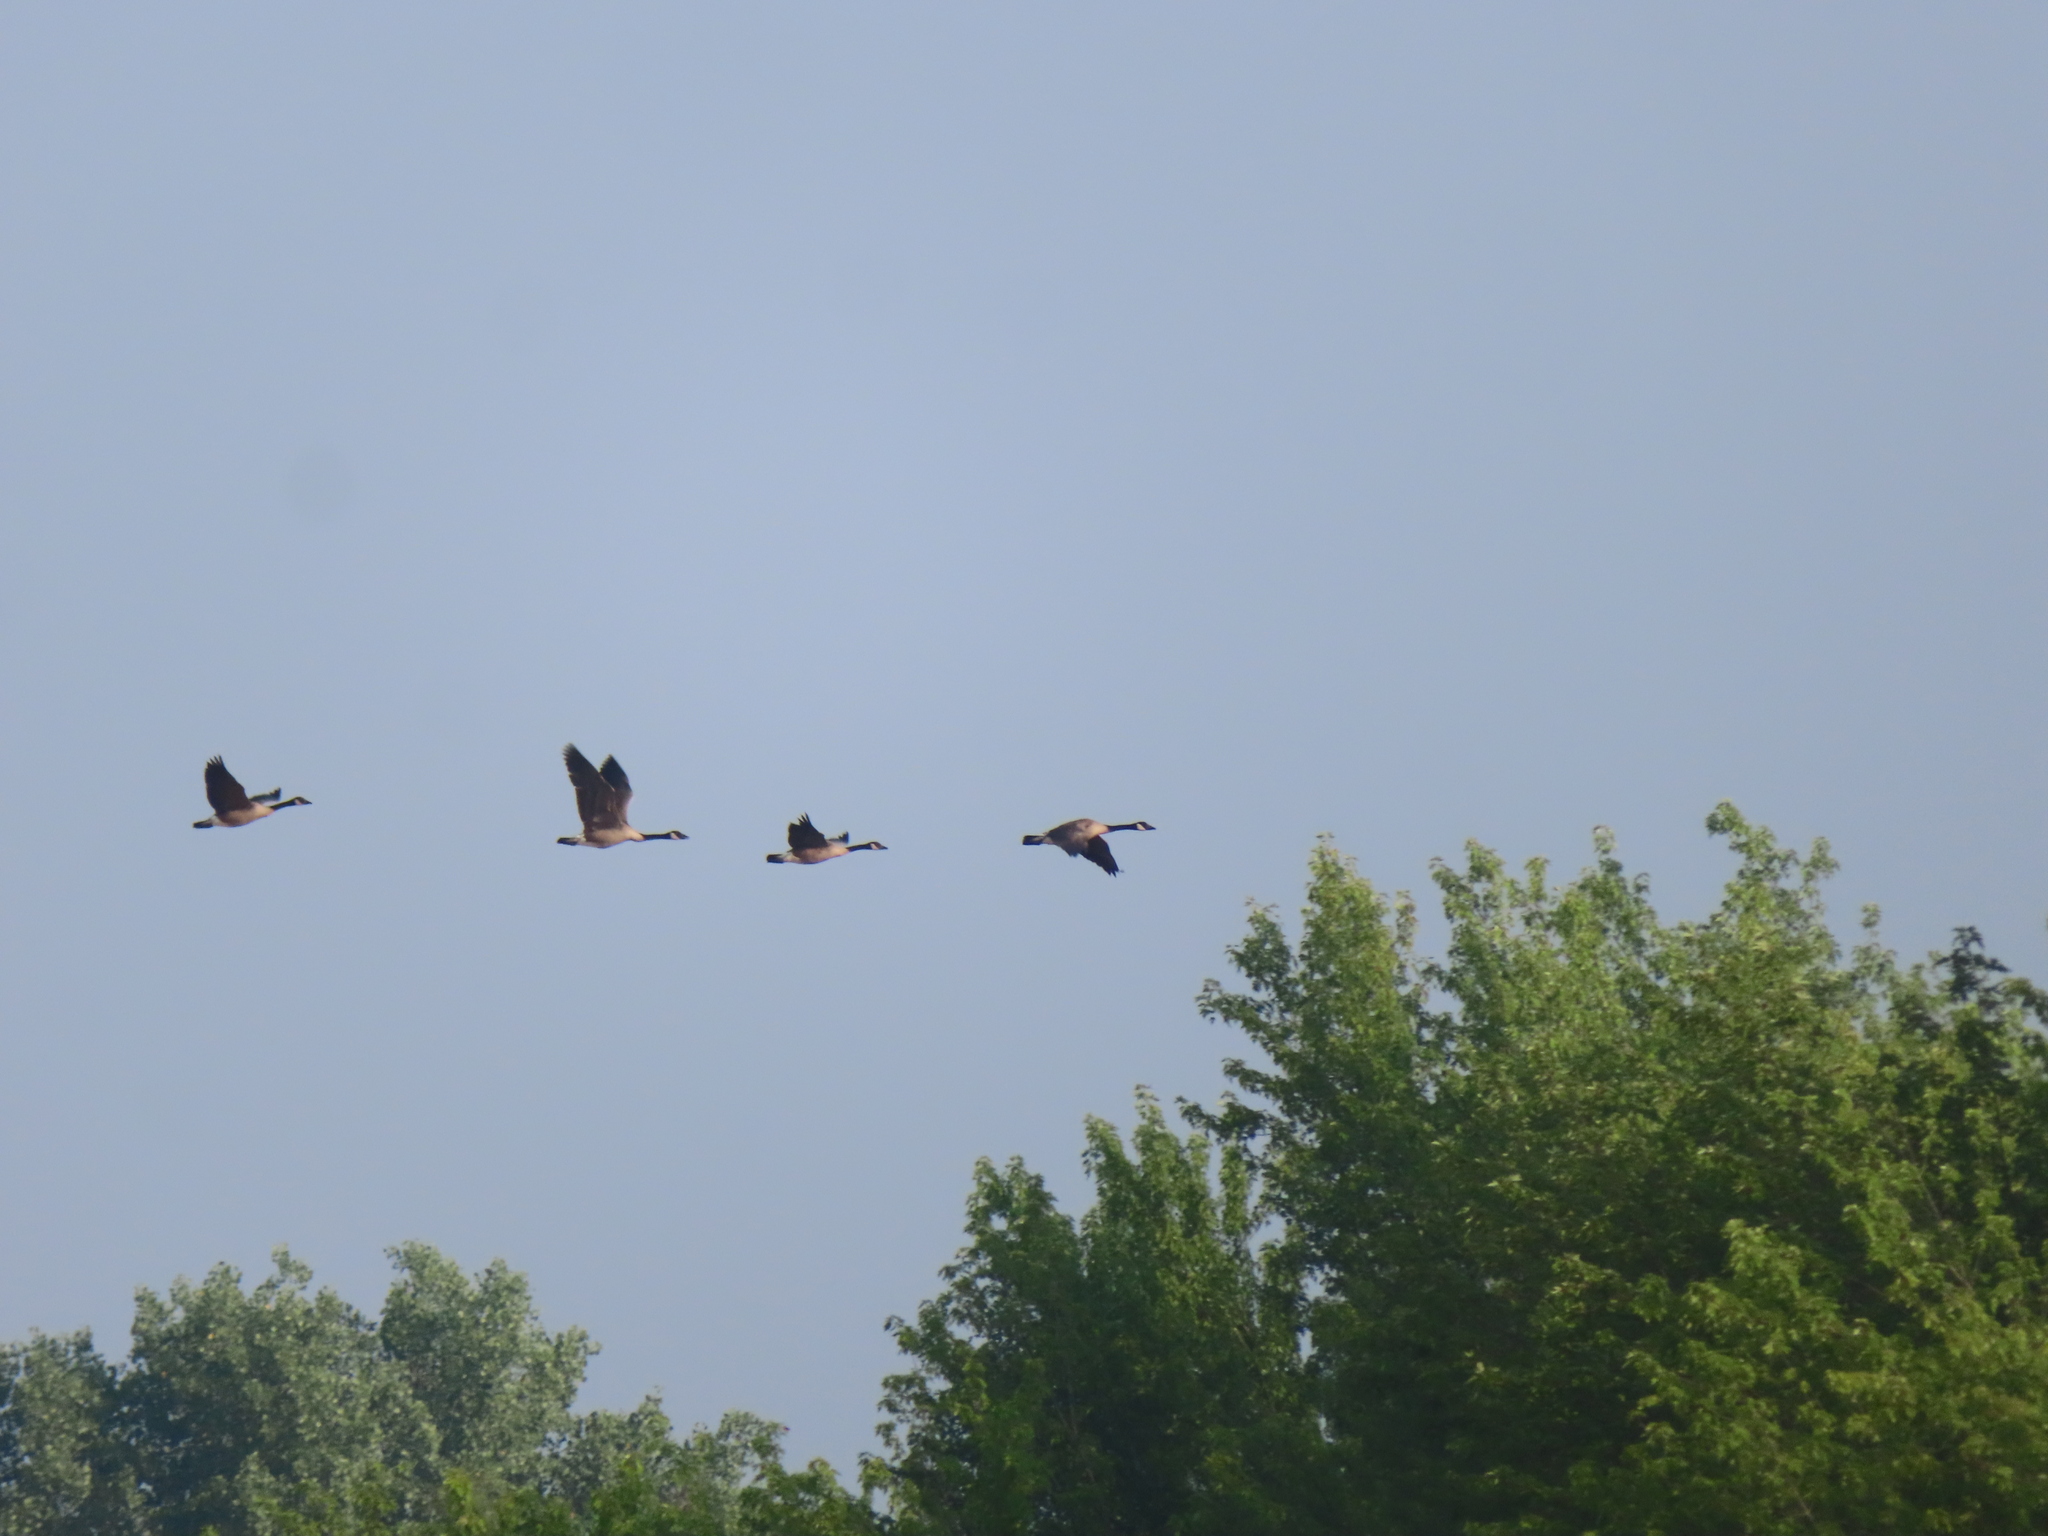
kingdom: Animalia
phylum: Chordata
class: Aves
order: Anseriformes
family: Anatidae
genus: Branta
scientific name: Branta canadensis
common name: Canada goose
